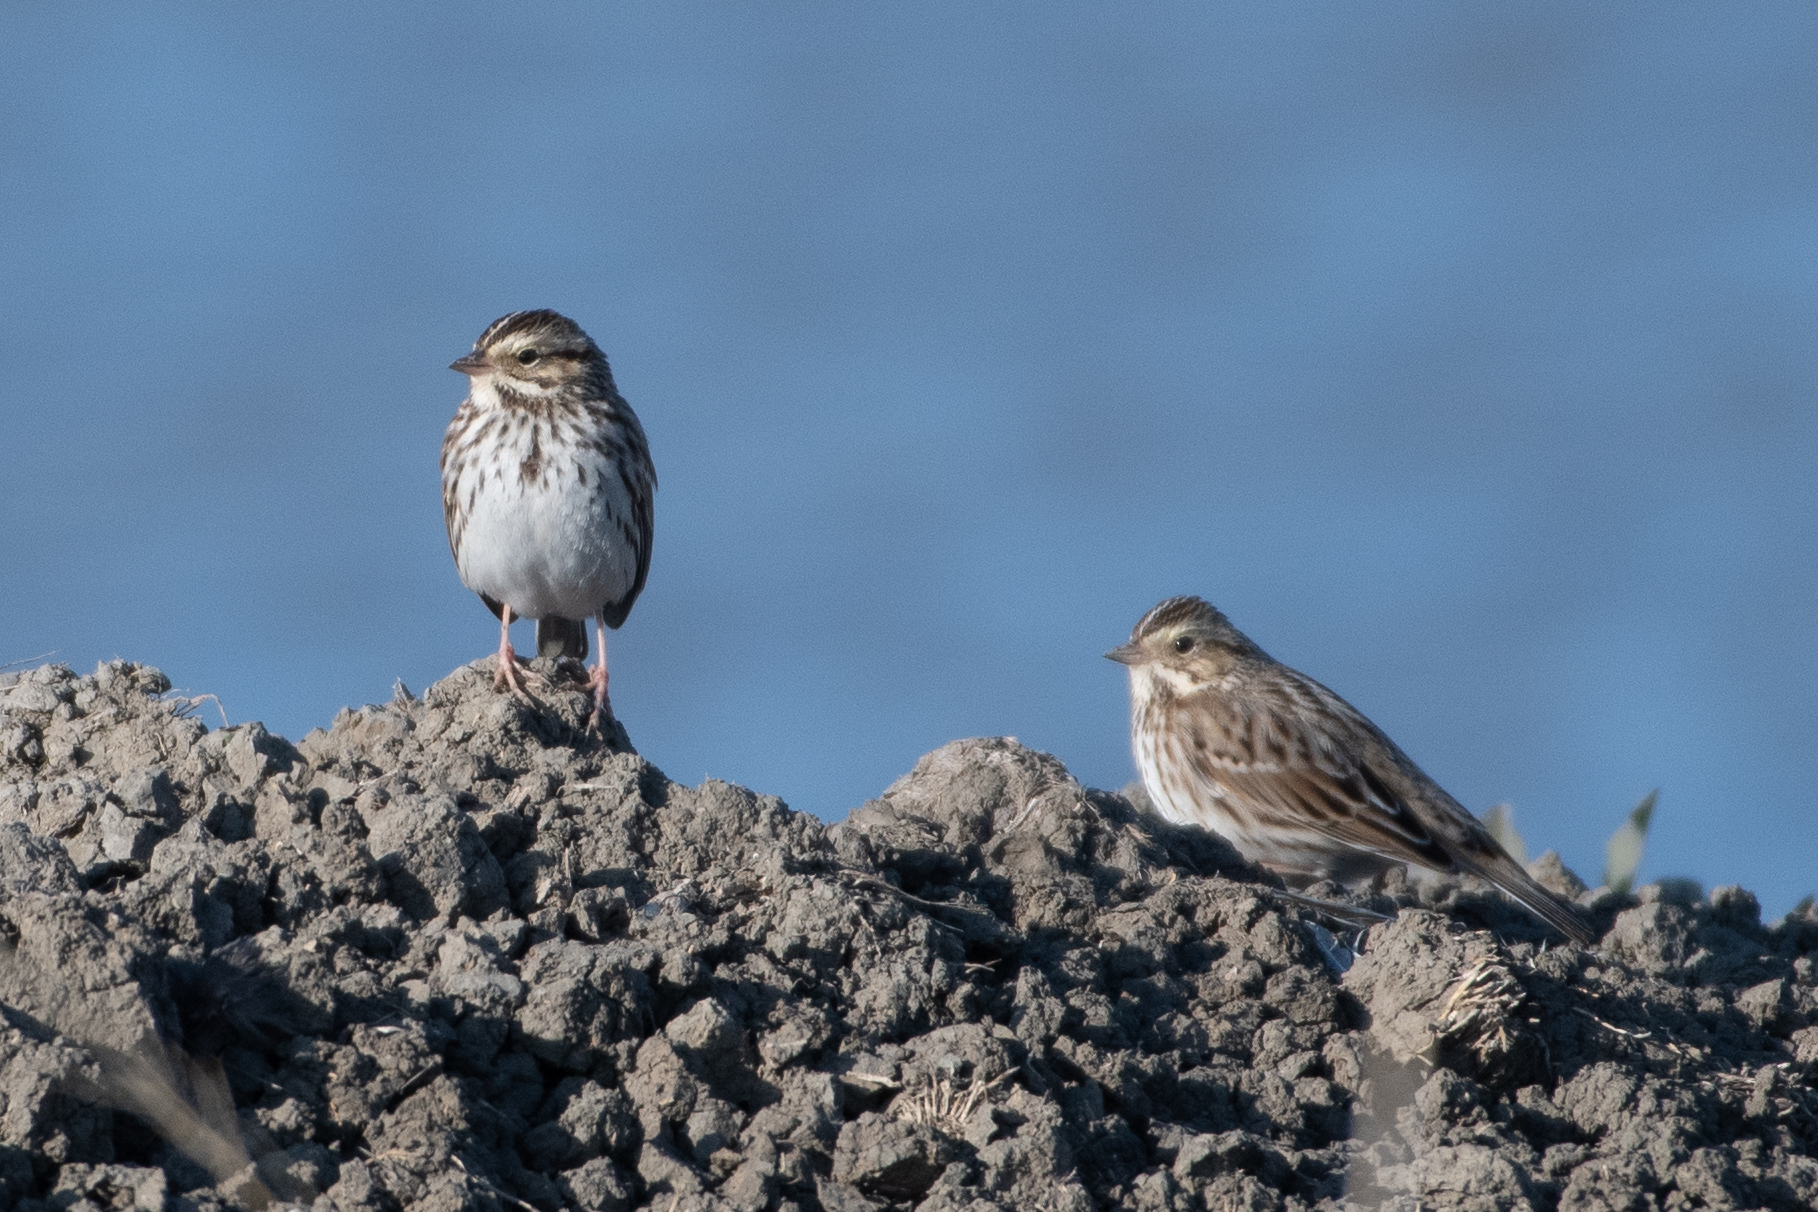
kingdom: Animalia
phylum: Chordata
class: Aves
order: Passeriformes
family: Passerellidae
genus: Passerculus
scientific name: Passerculus sandwichensis
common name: Savannah sparrow
